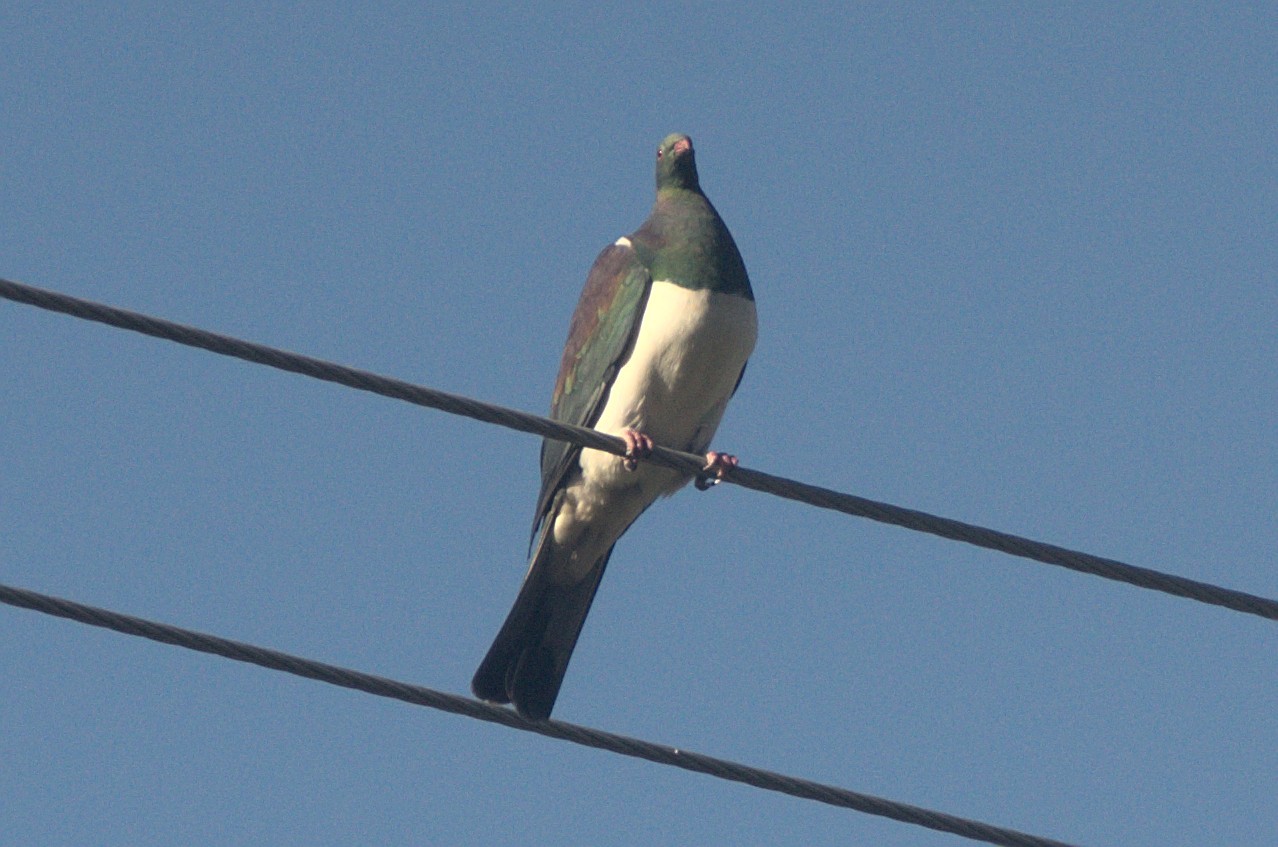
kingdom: Animalia
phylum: Chordata
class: Aves
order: Columbiformes
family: Columbidae
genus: Hemiphaga
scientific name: Hemiphaga novaeseelandiae
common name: New zealand pigeon
